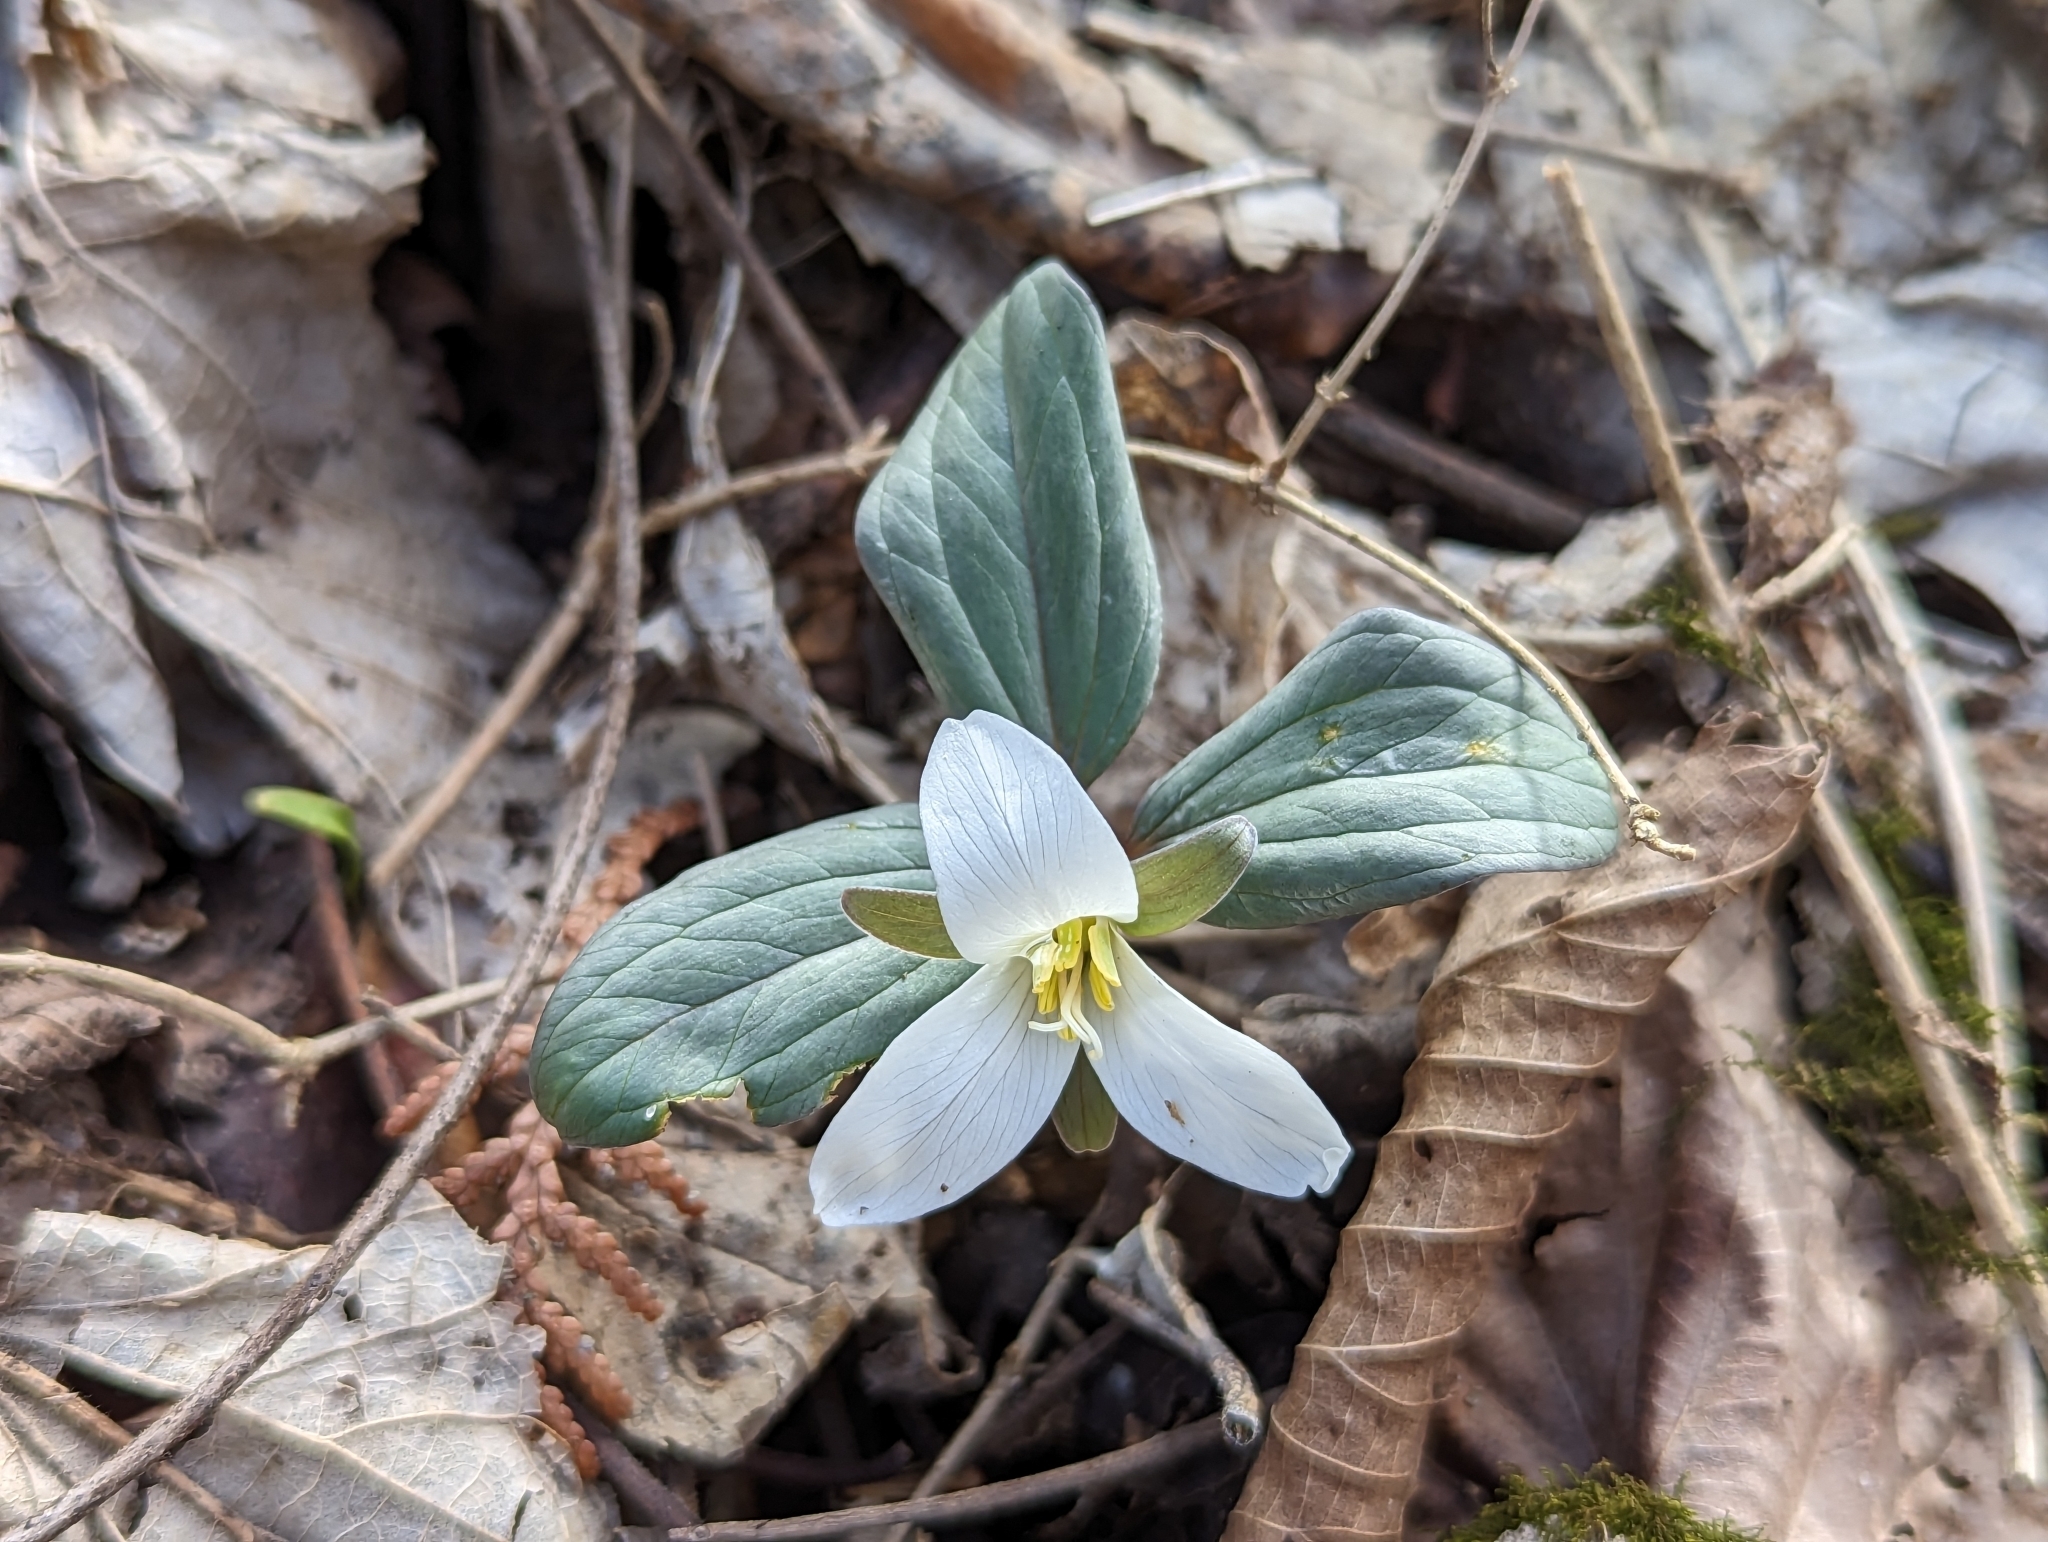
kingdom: Plantae
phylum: Tracheophyta
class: Liliopsida
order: Liliales
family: Melanthiaceae
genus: Trillium
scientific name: Trillium nivale
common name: Dwarf white trillium
